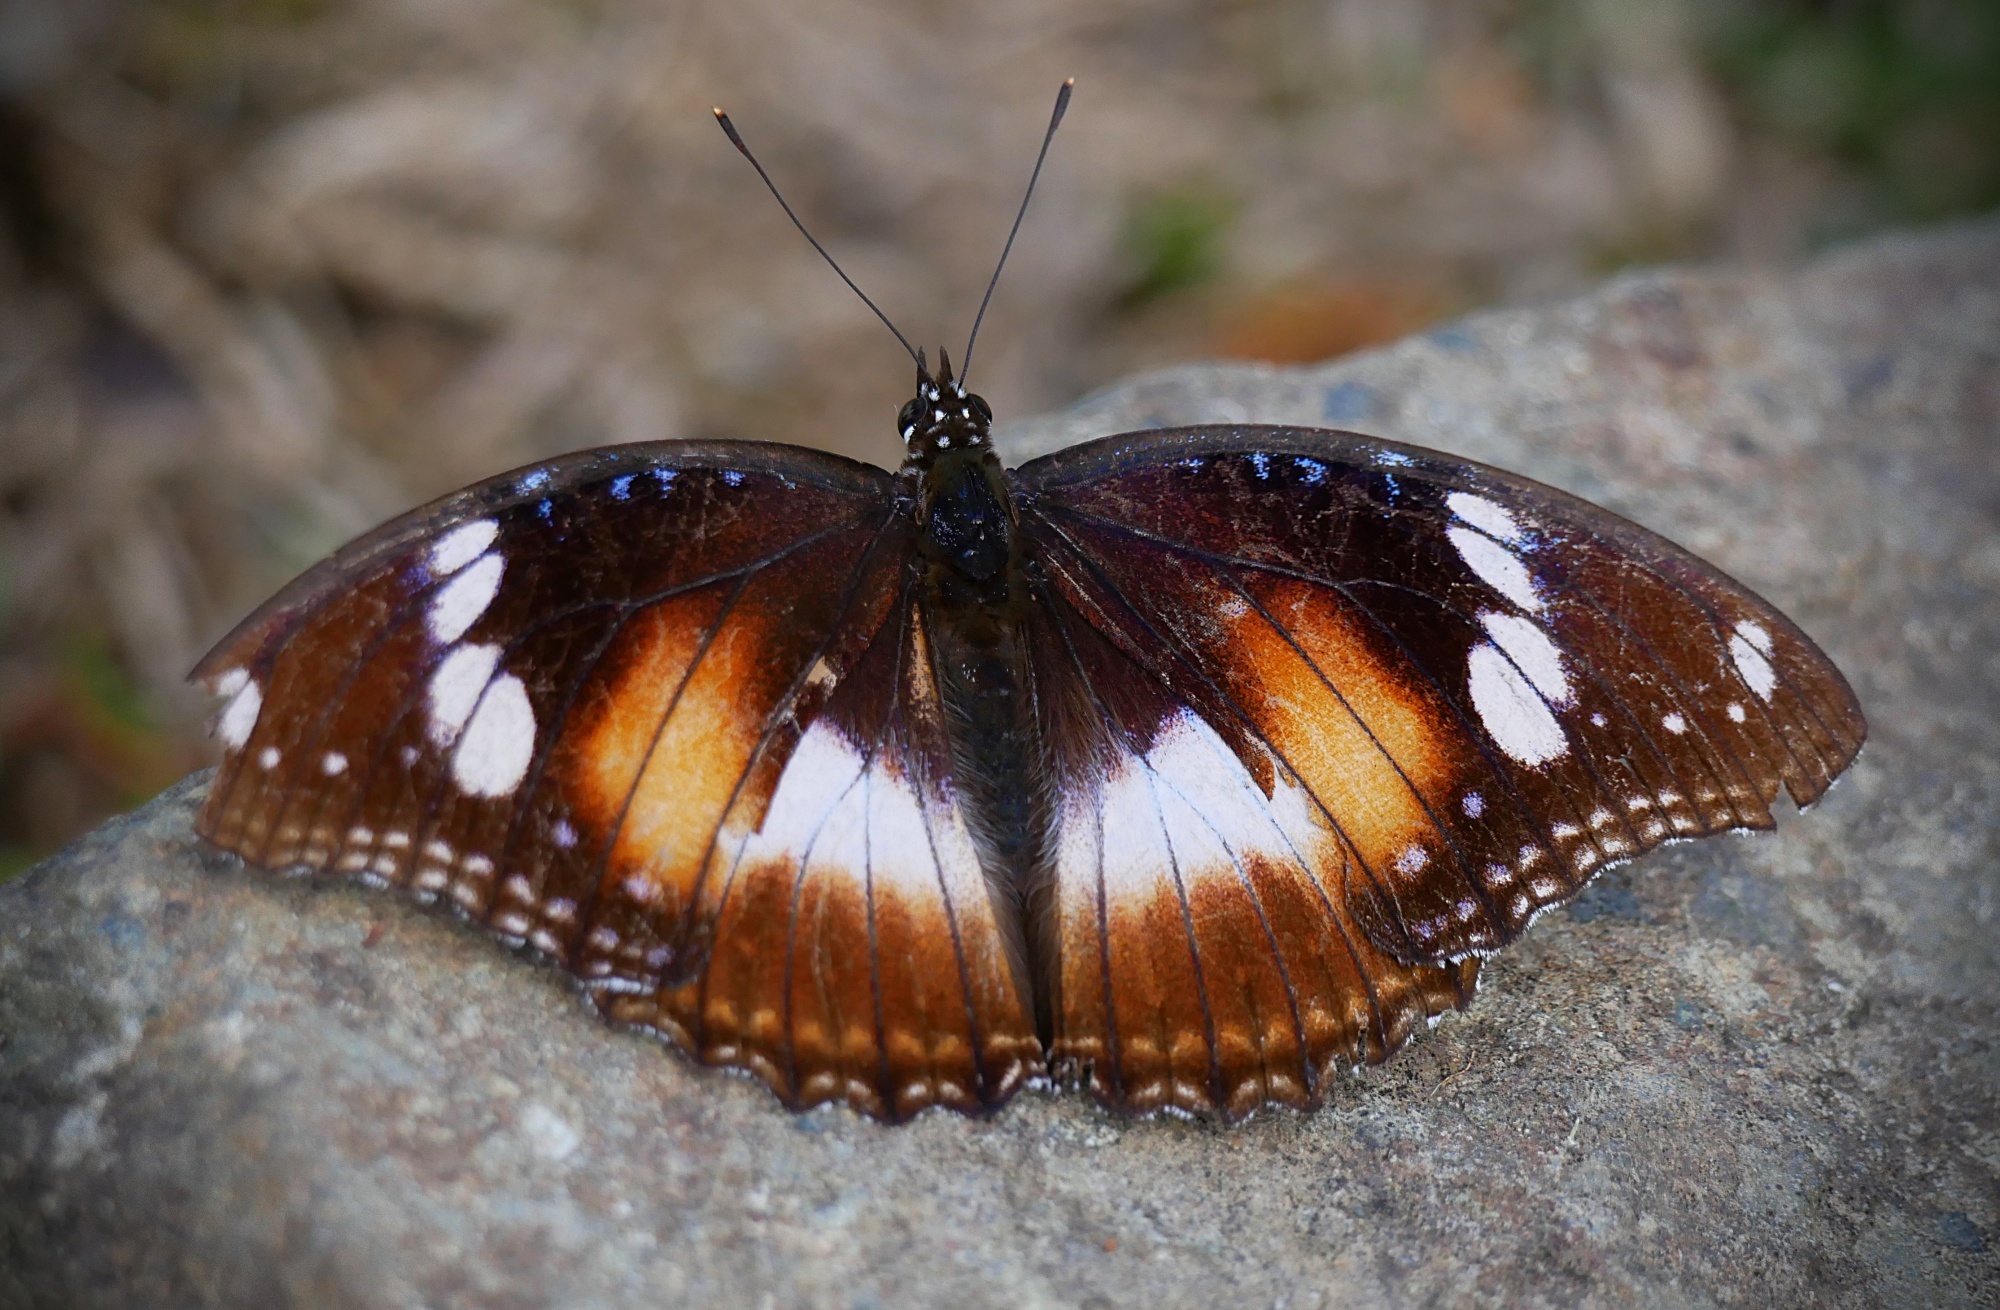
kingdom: Animalia
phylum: Arthropoda
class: Insecta
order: Lepidoptera
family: Nymphalidae
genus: Hypolimnas
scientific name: Hypolimnas bolina
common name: Great eggfly
